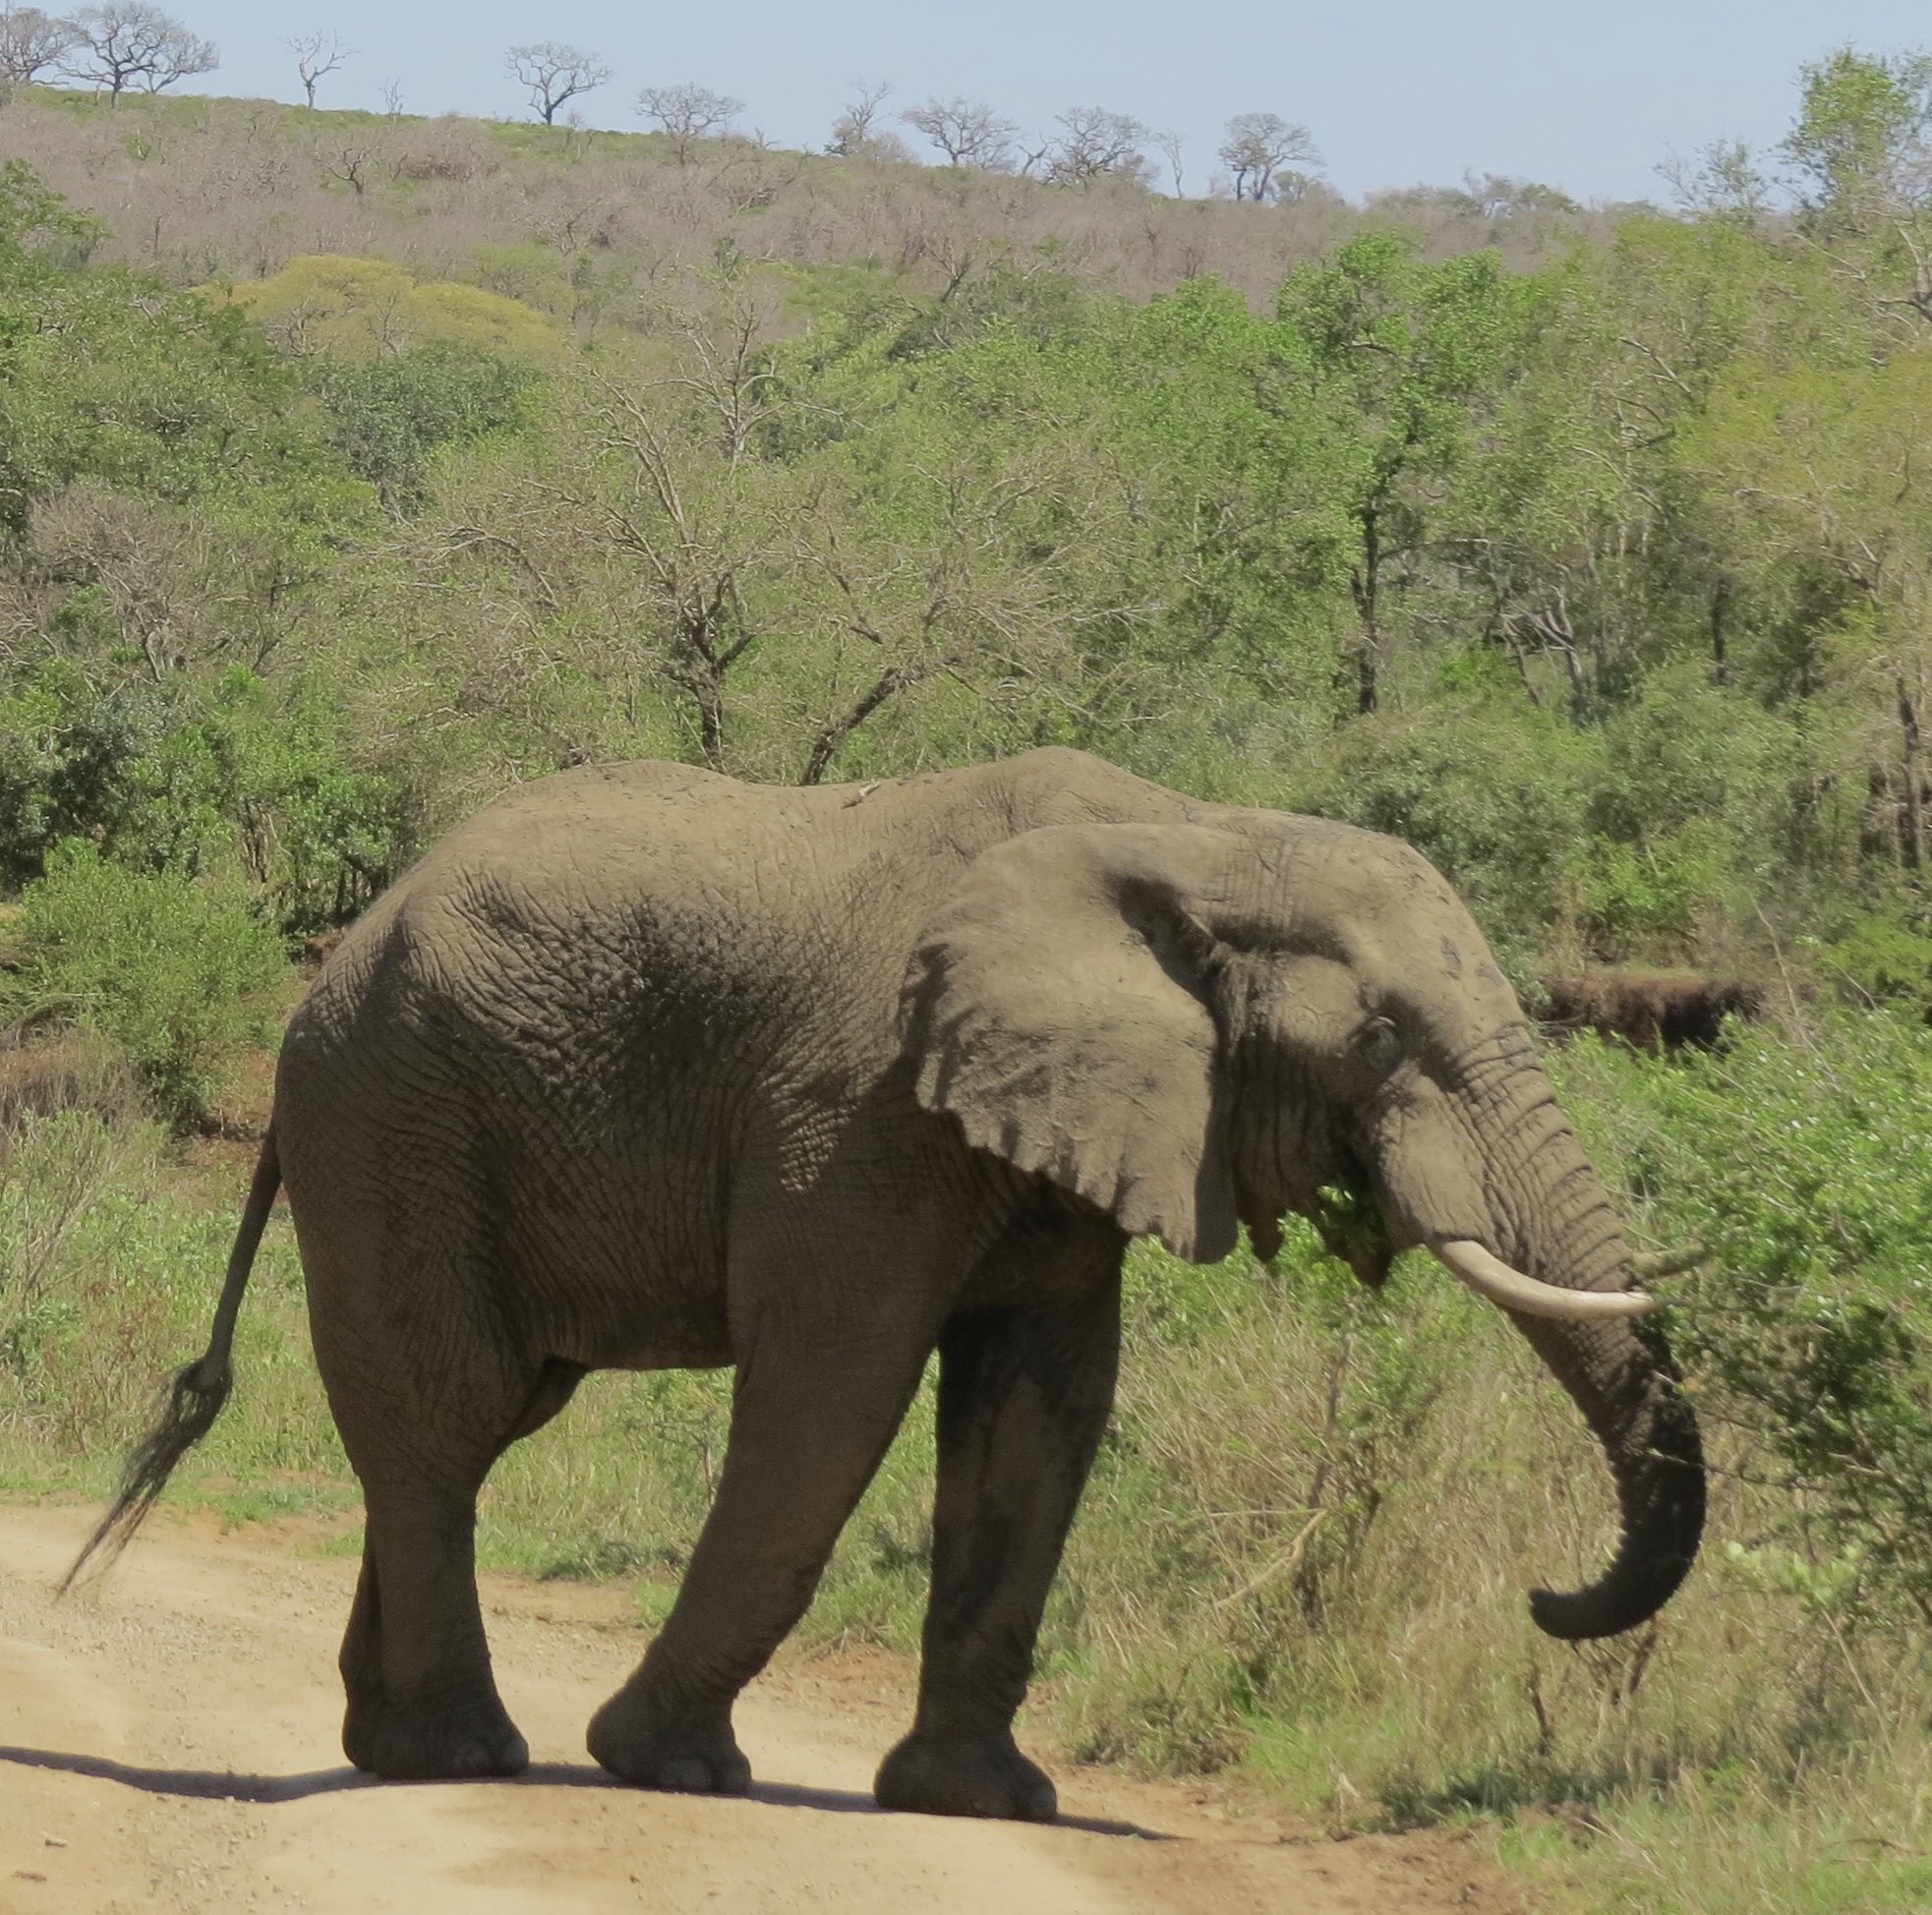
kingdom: Animalia
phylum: Chordata
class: Mammalia
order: Proboscidea
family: Elephantidae
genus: Loxodonta
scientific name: Loxodonta africana
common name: African elephant
